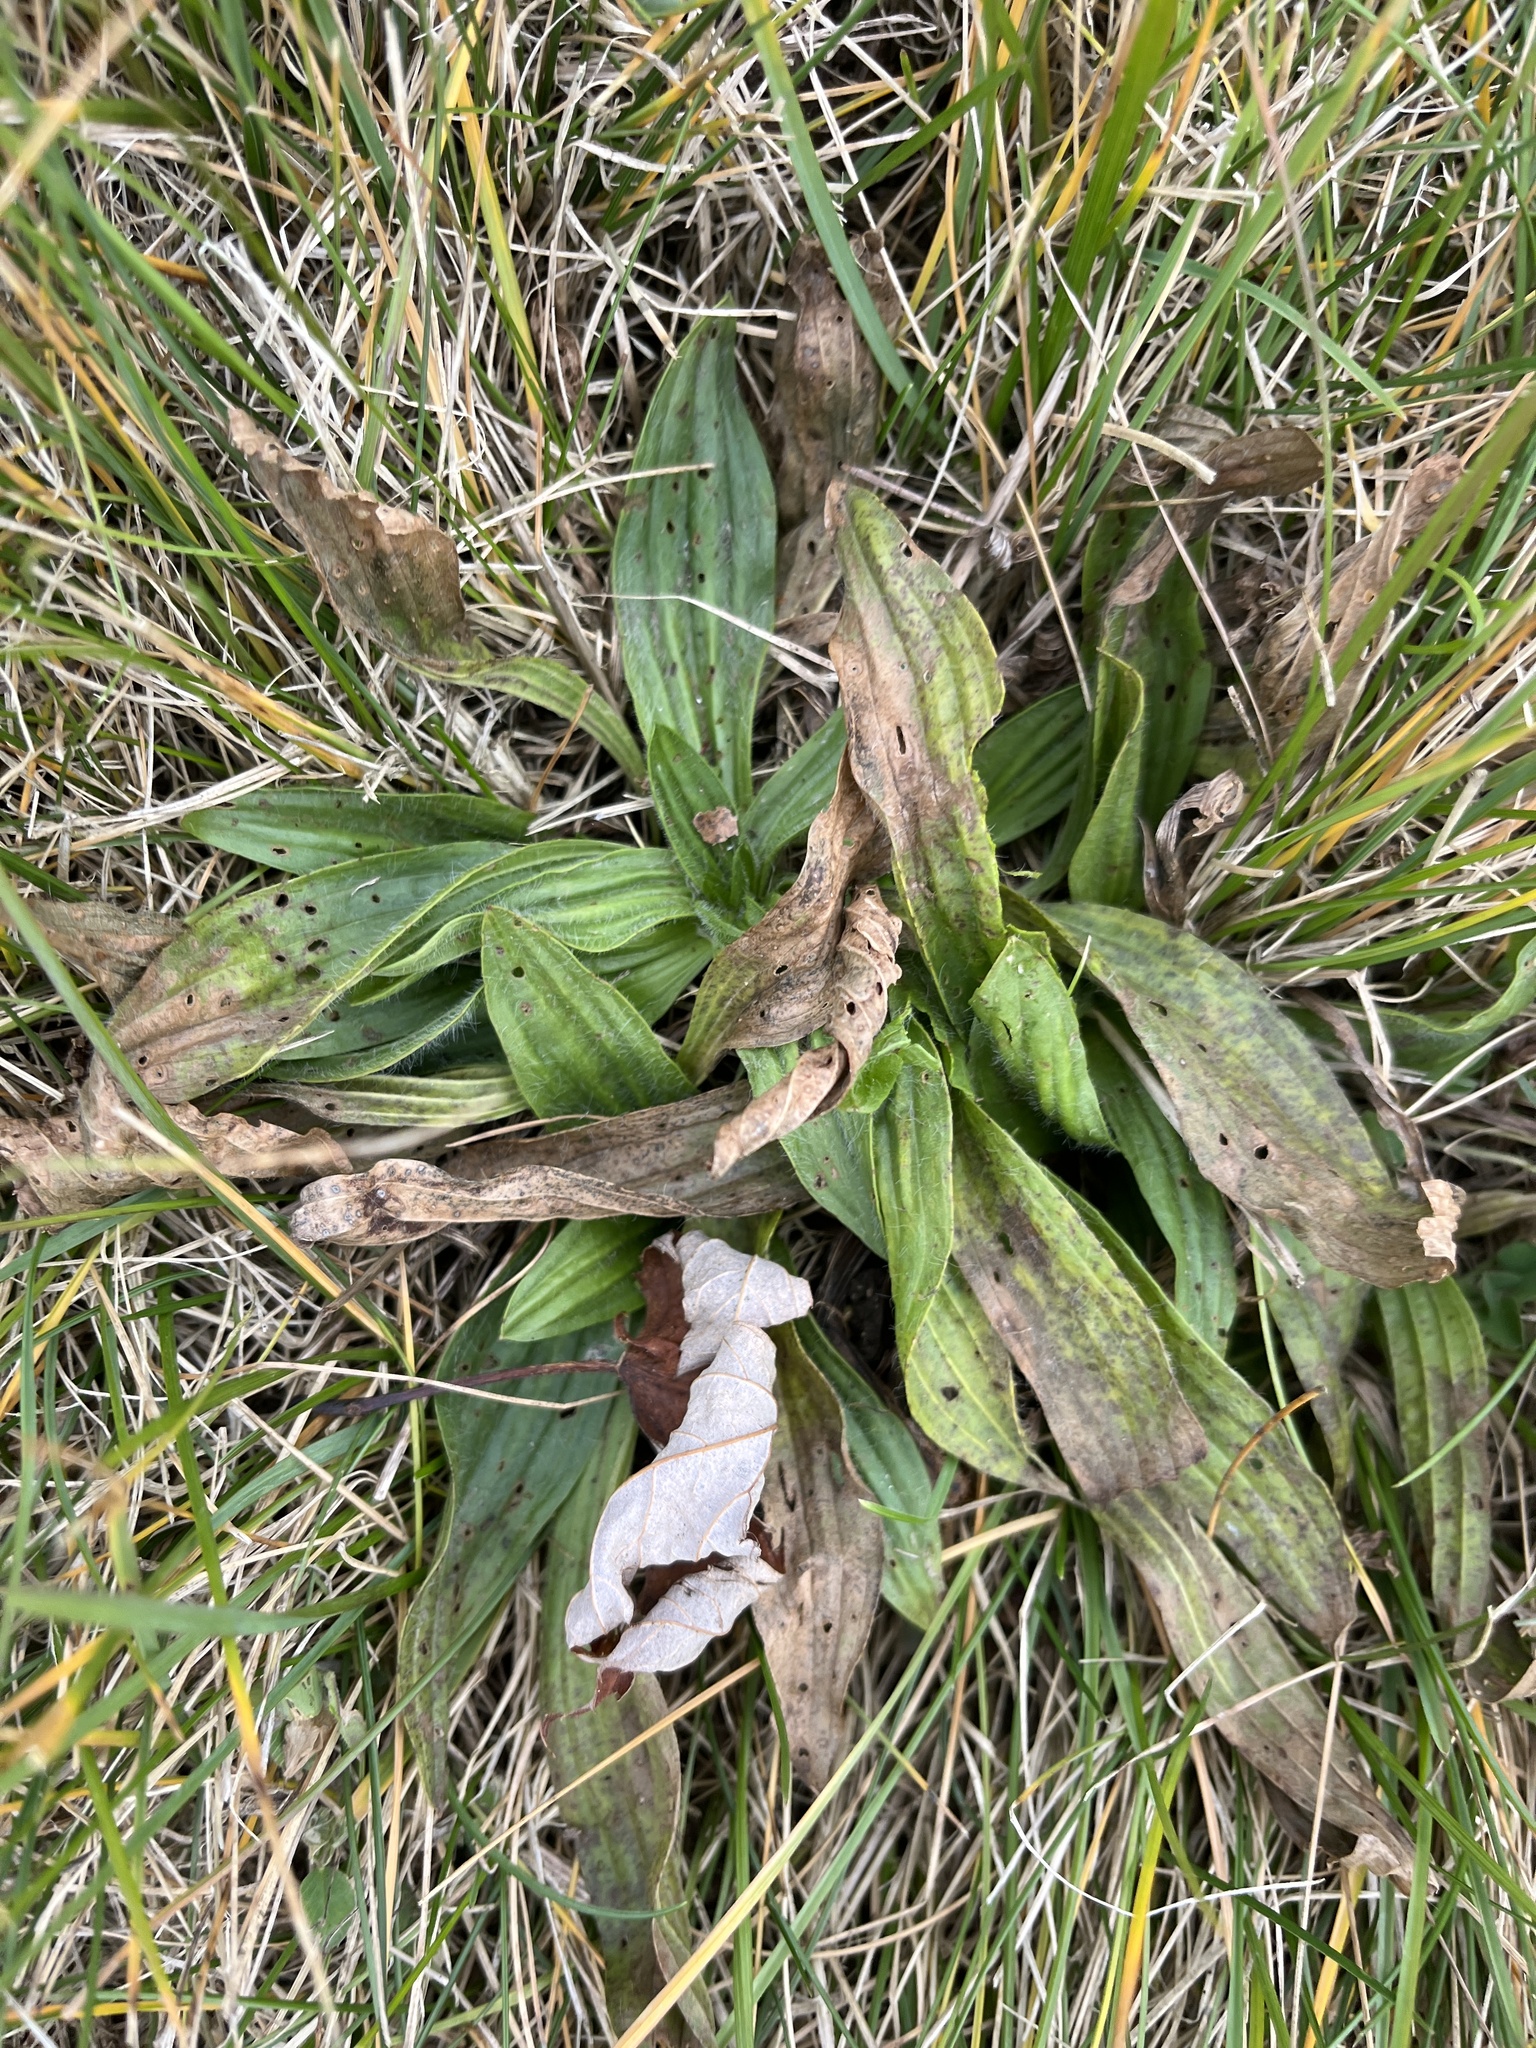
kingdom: Plantae
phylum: Tracheophyta
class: Magnoliopsida
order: Lamiales
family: Plantaginaceae
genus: Plantago
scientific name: Plantago lanceolata
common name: Ribwort plantain
